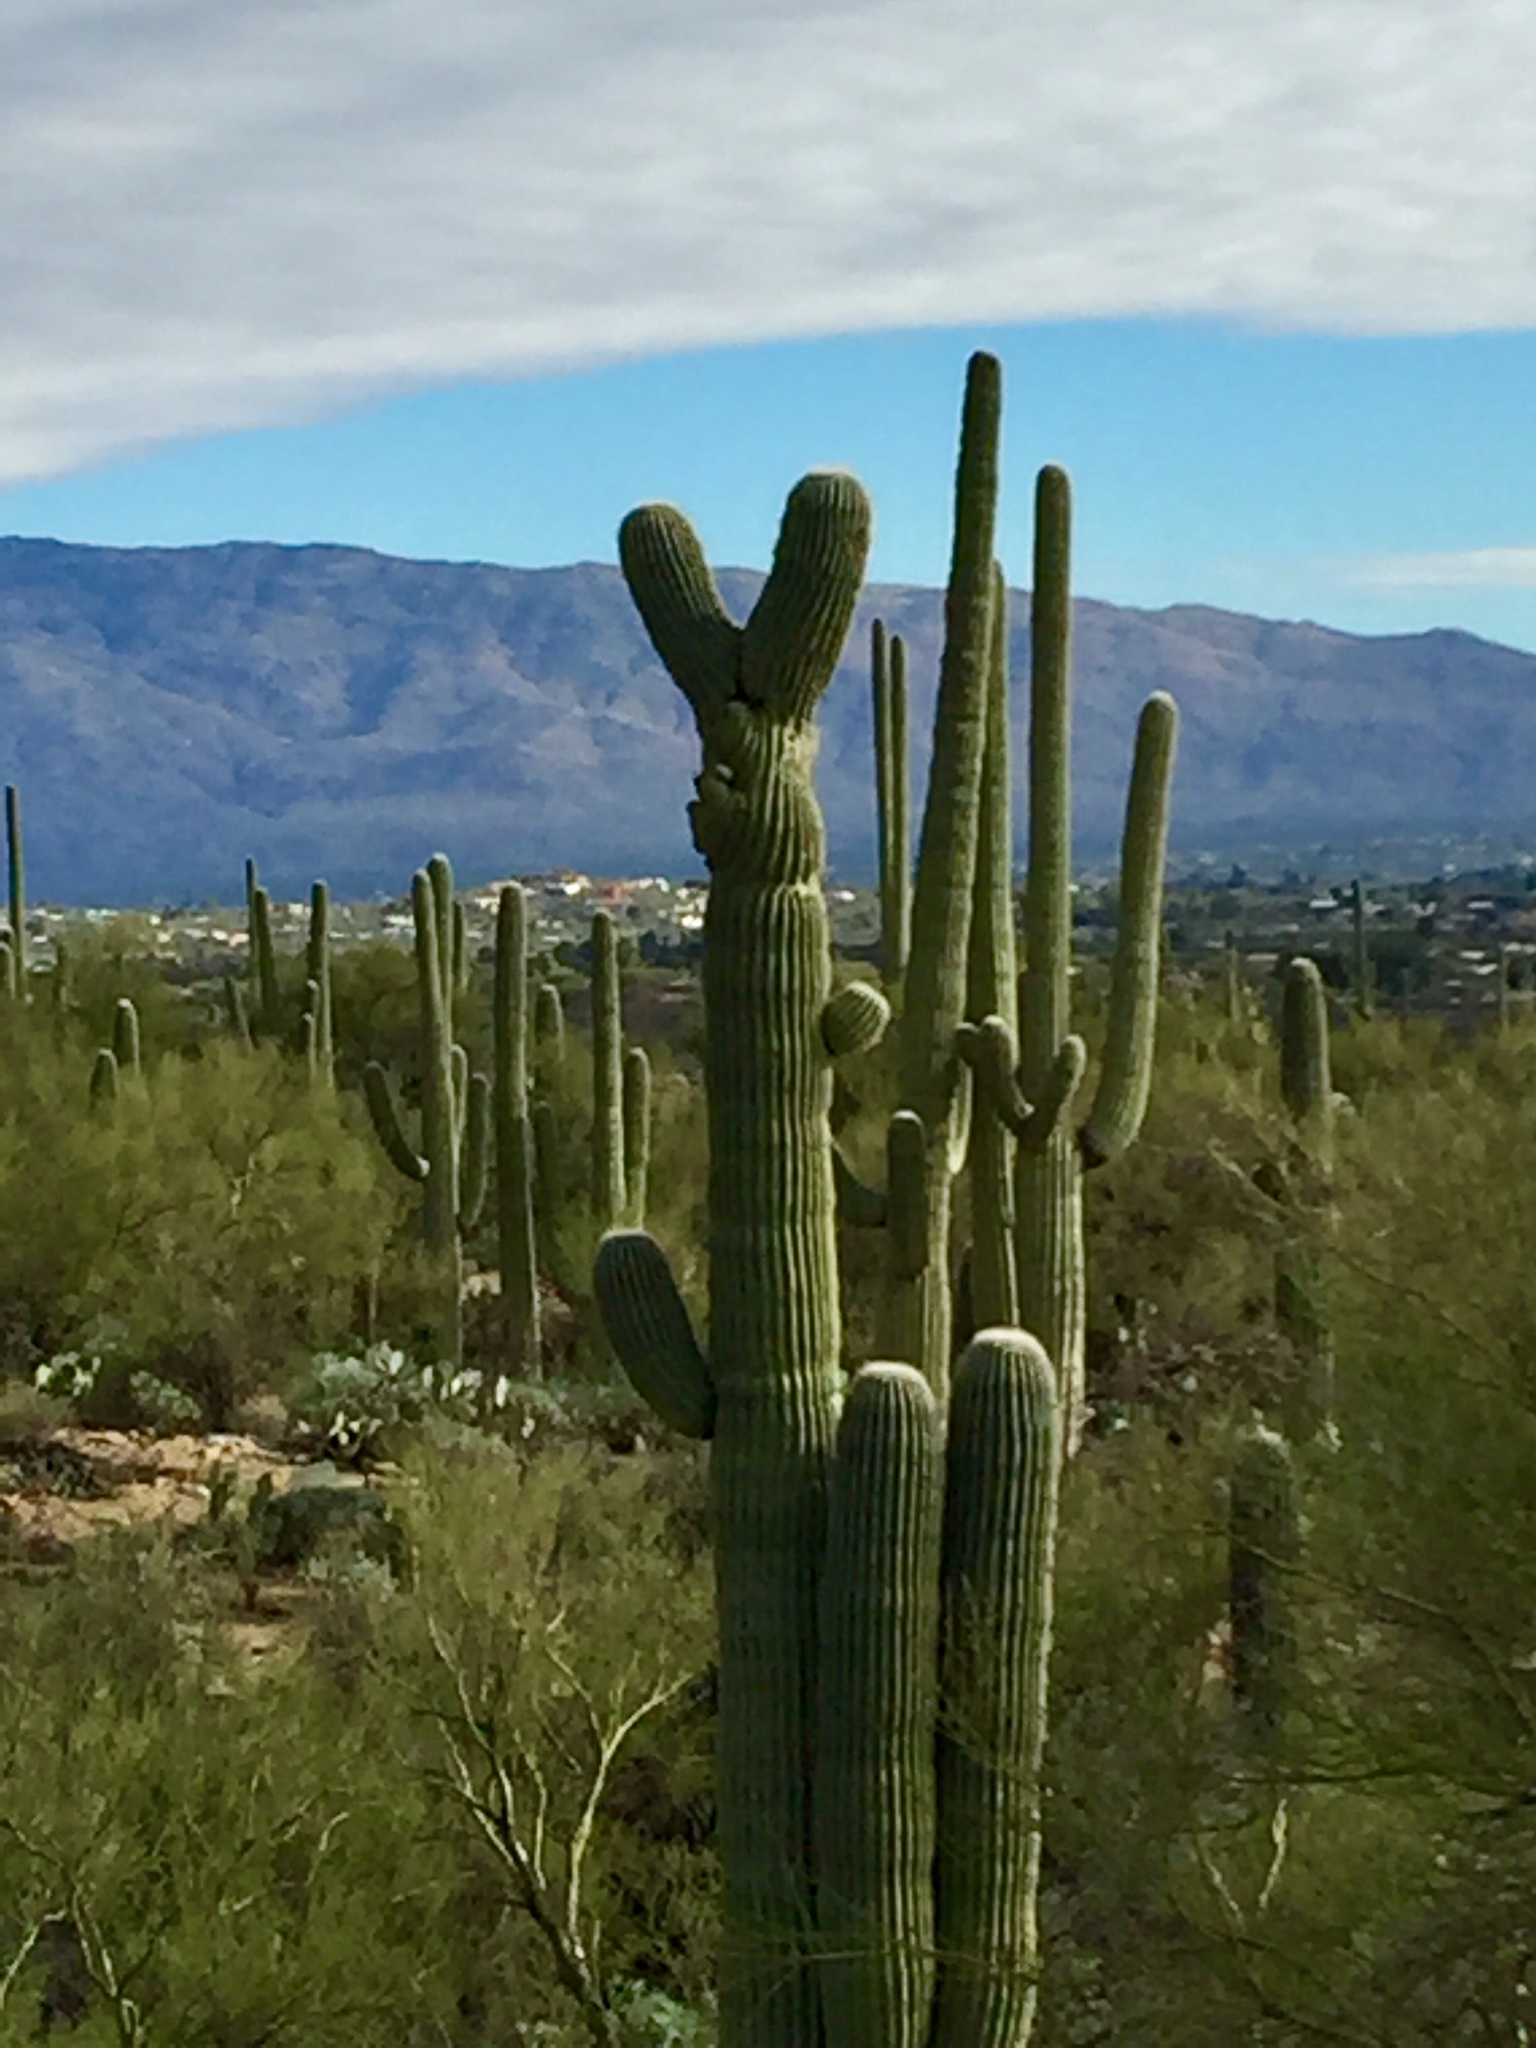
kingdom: Plantae
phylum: Tracheophyta
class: Magnoliopsida
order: Caryophyllales
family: Cactaceae
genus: Carnegiea
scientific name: Carnegiea gigantea
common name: Saguaro
